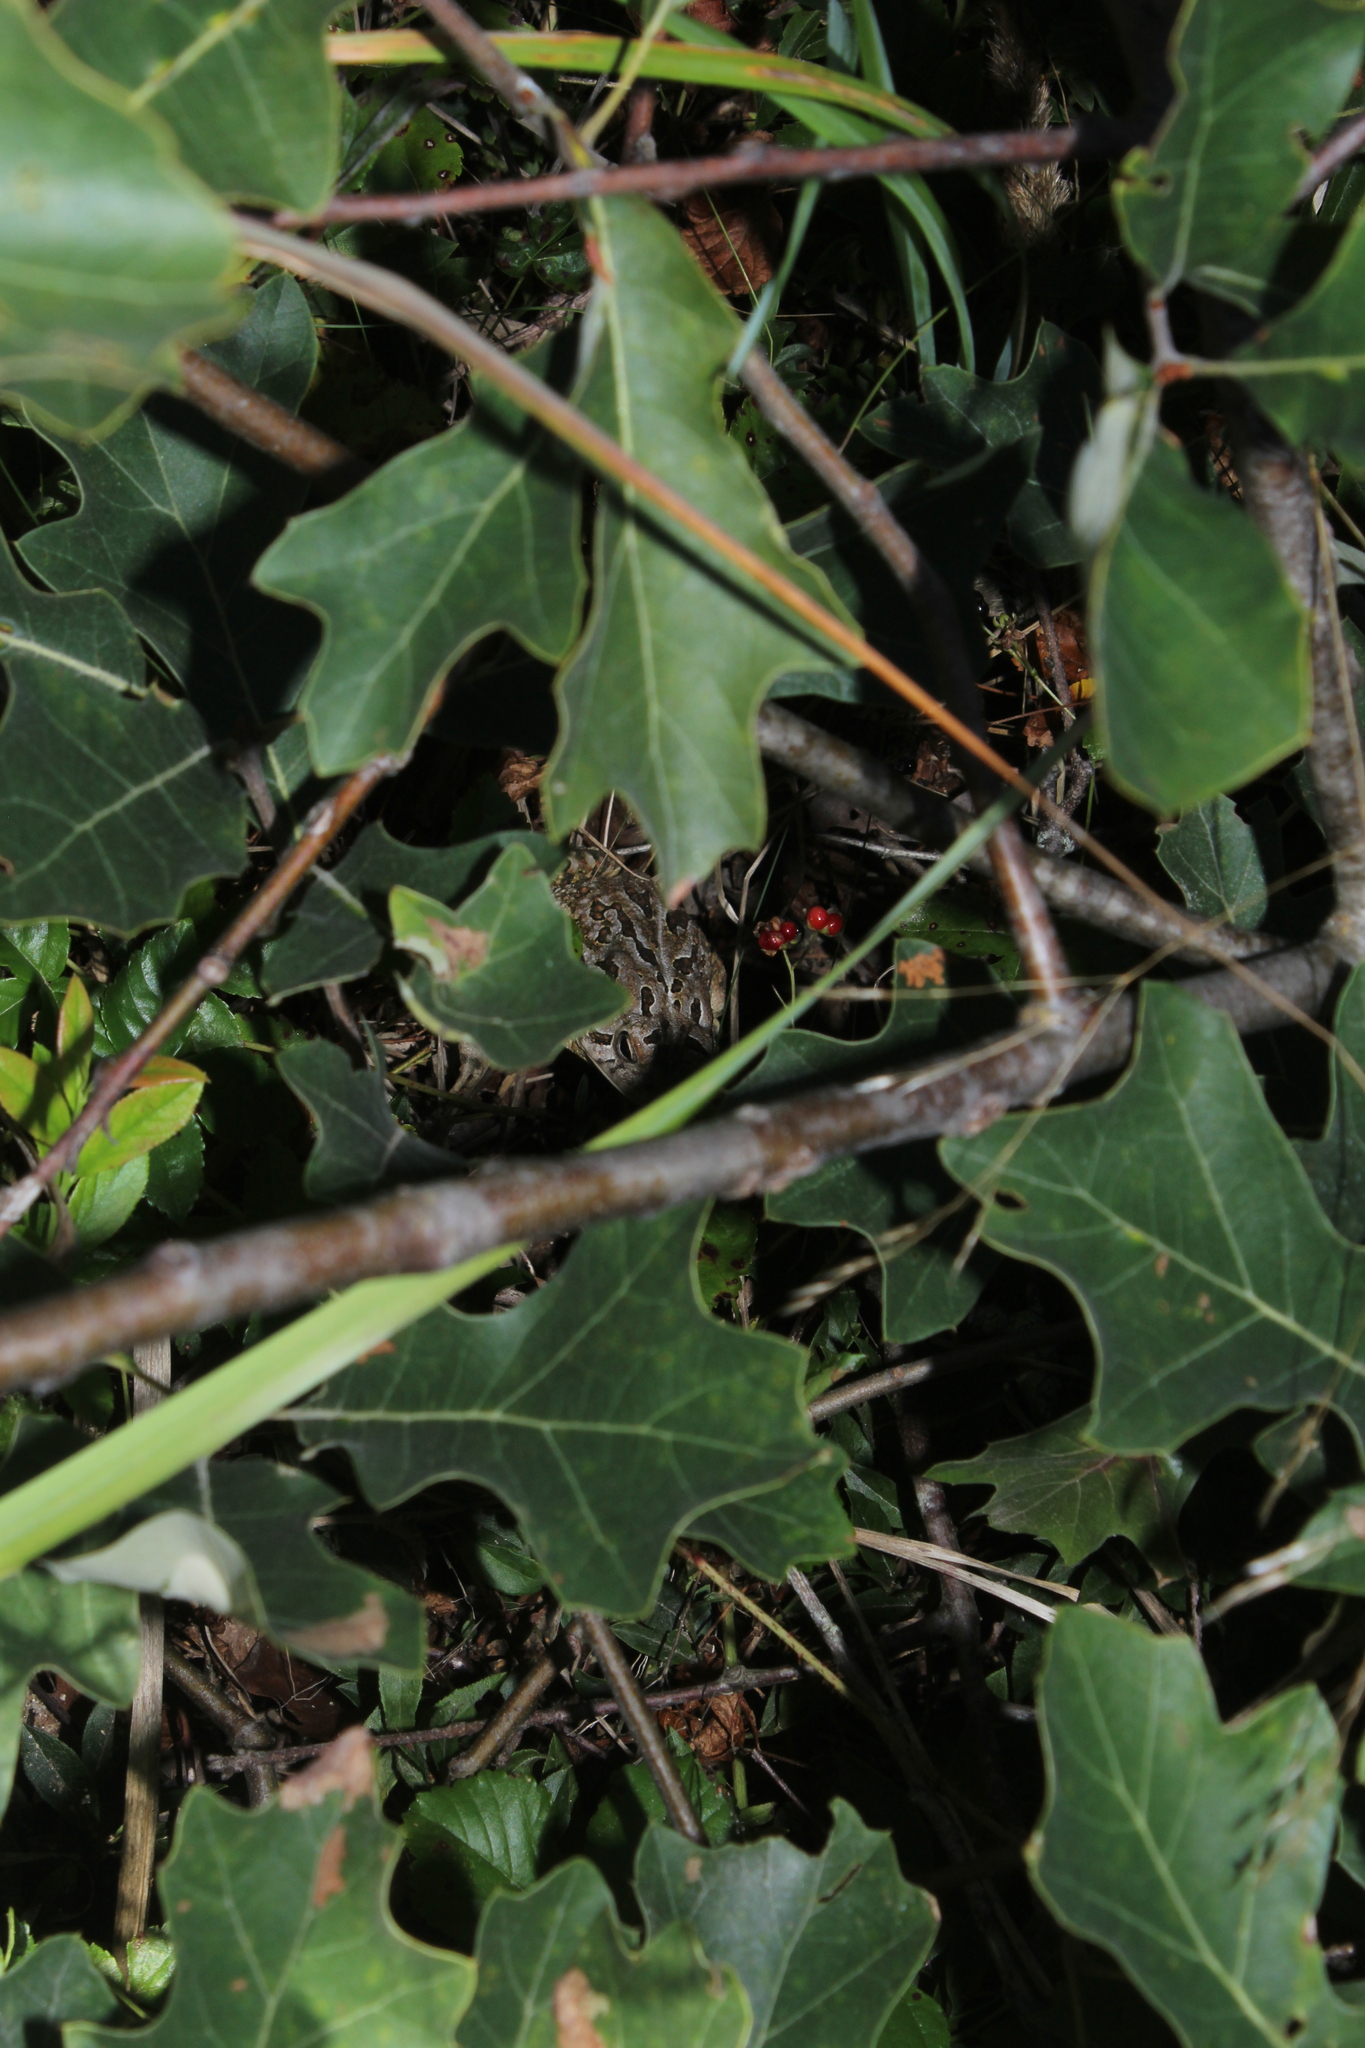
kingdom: Animalia
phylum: Chordata
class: Amphibia
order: Anura
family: Bufonidae
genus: Anaxyrus
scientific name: Anaxyrus fowleri
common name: Fowler's toad
